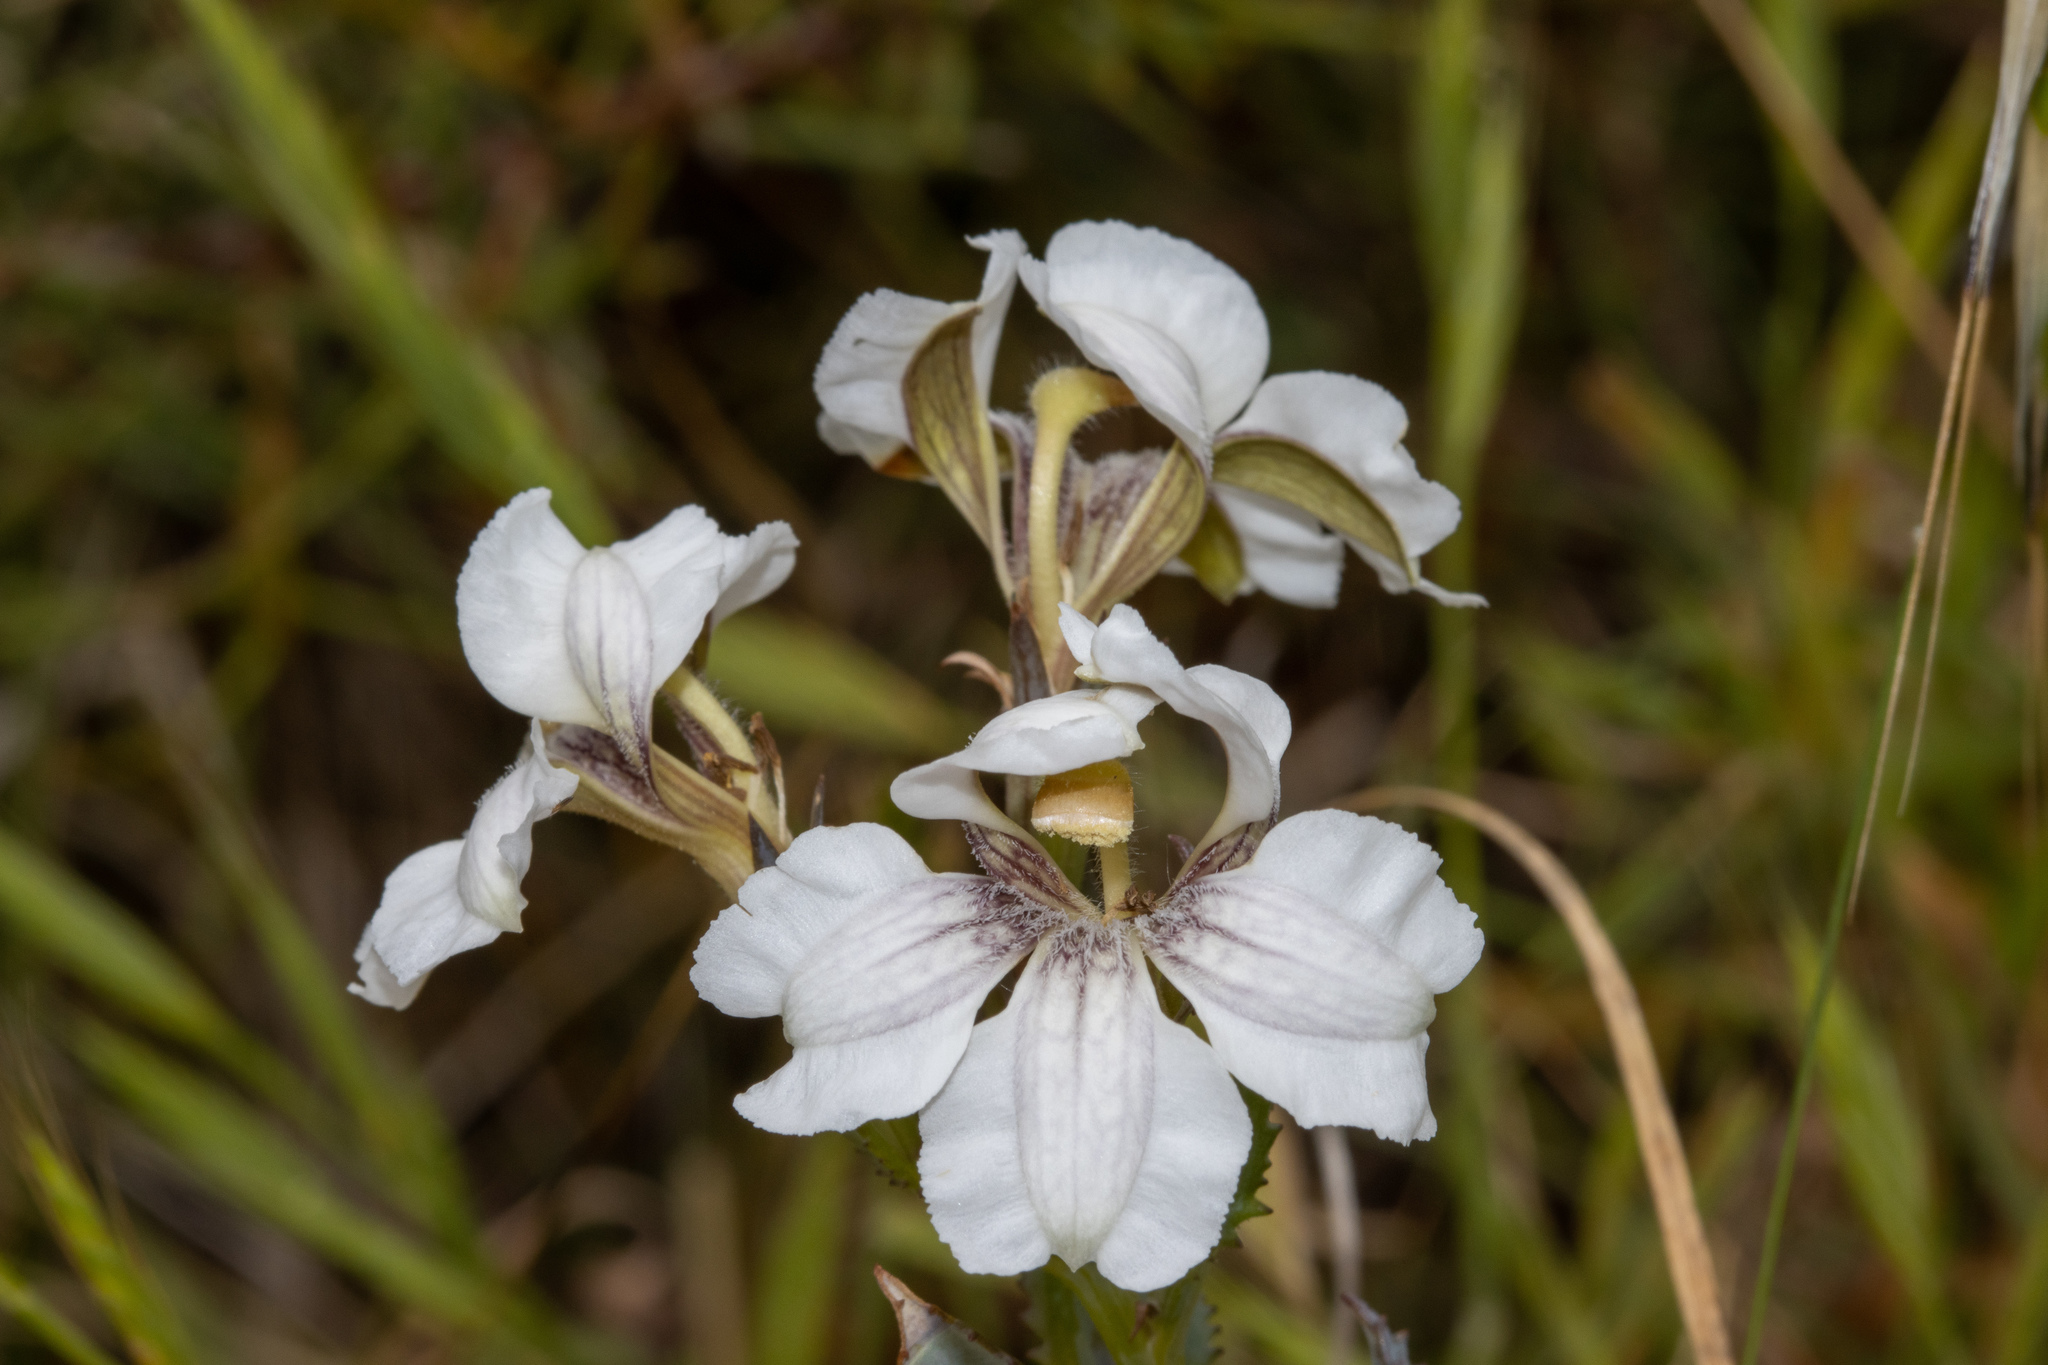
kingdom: Plantae
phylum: Tracheophyta
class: Magnoliopsida
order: Asterales
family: Goodeniaceae
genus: Goodenia
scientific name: Goodenia albiflora
